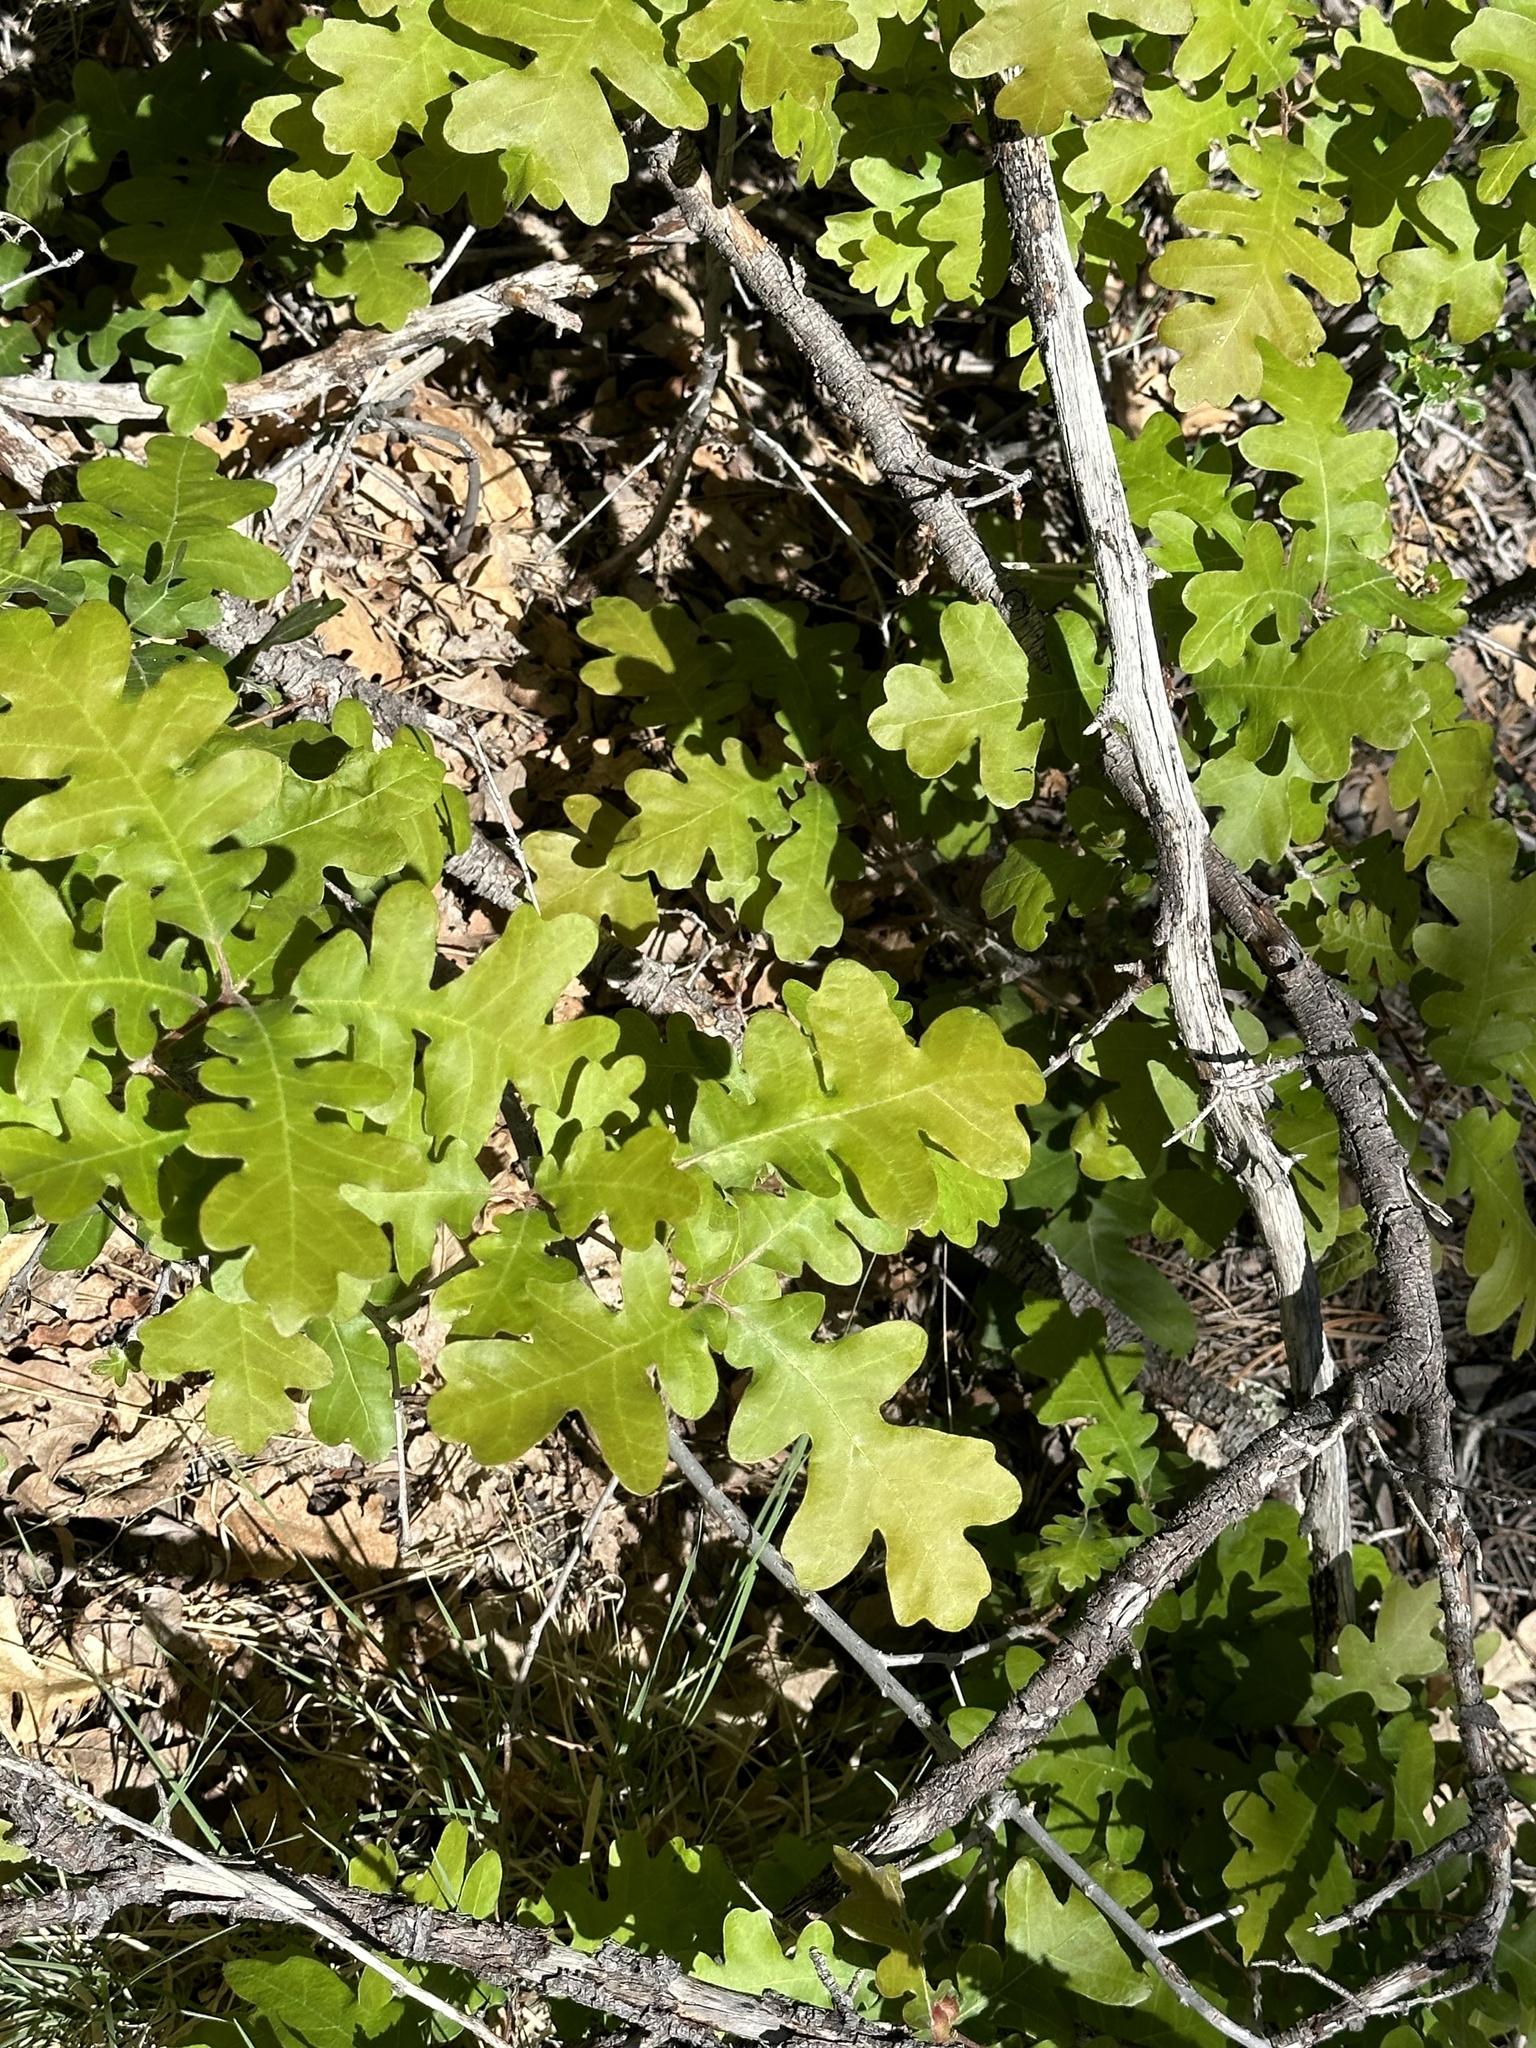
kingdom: Plantae
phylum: Tracheophyta
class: Magnoliopsida
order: Fagales
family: Fagaceae
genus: Quercus
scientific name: Quercus gambelii
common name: Gambel oak
